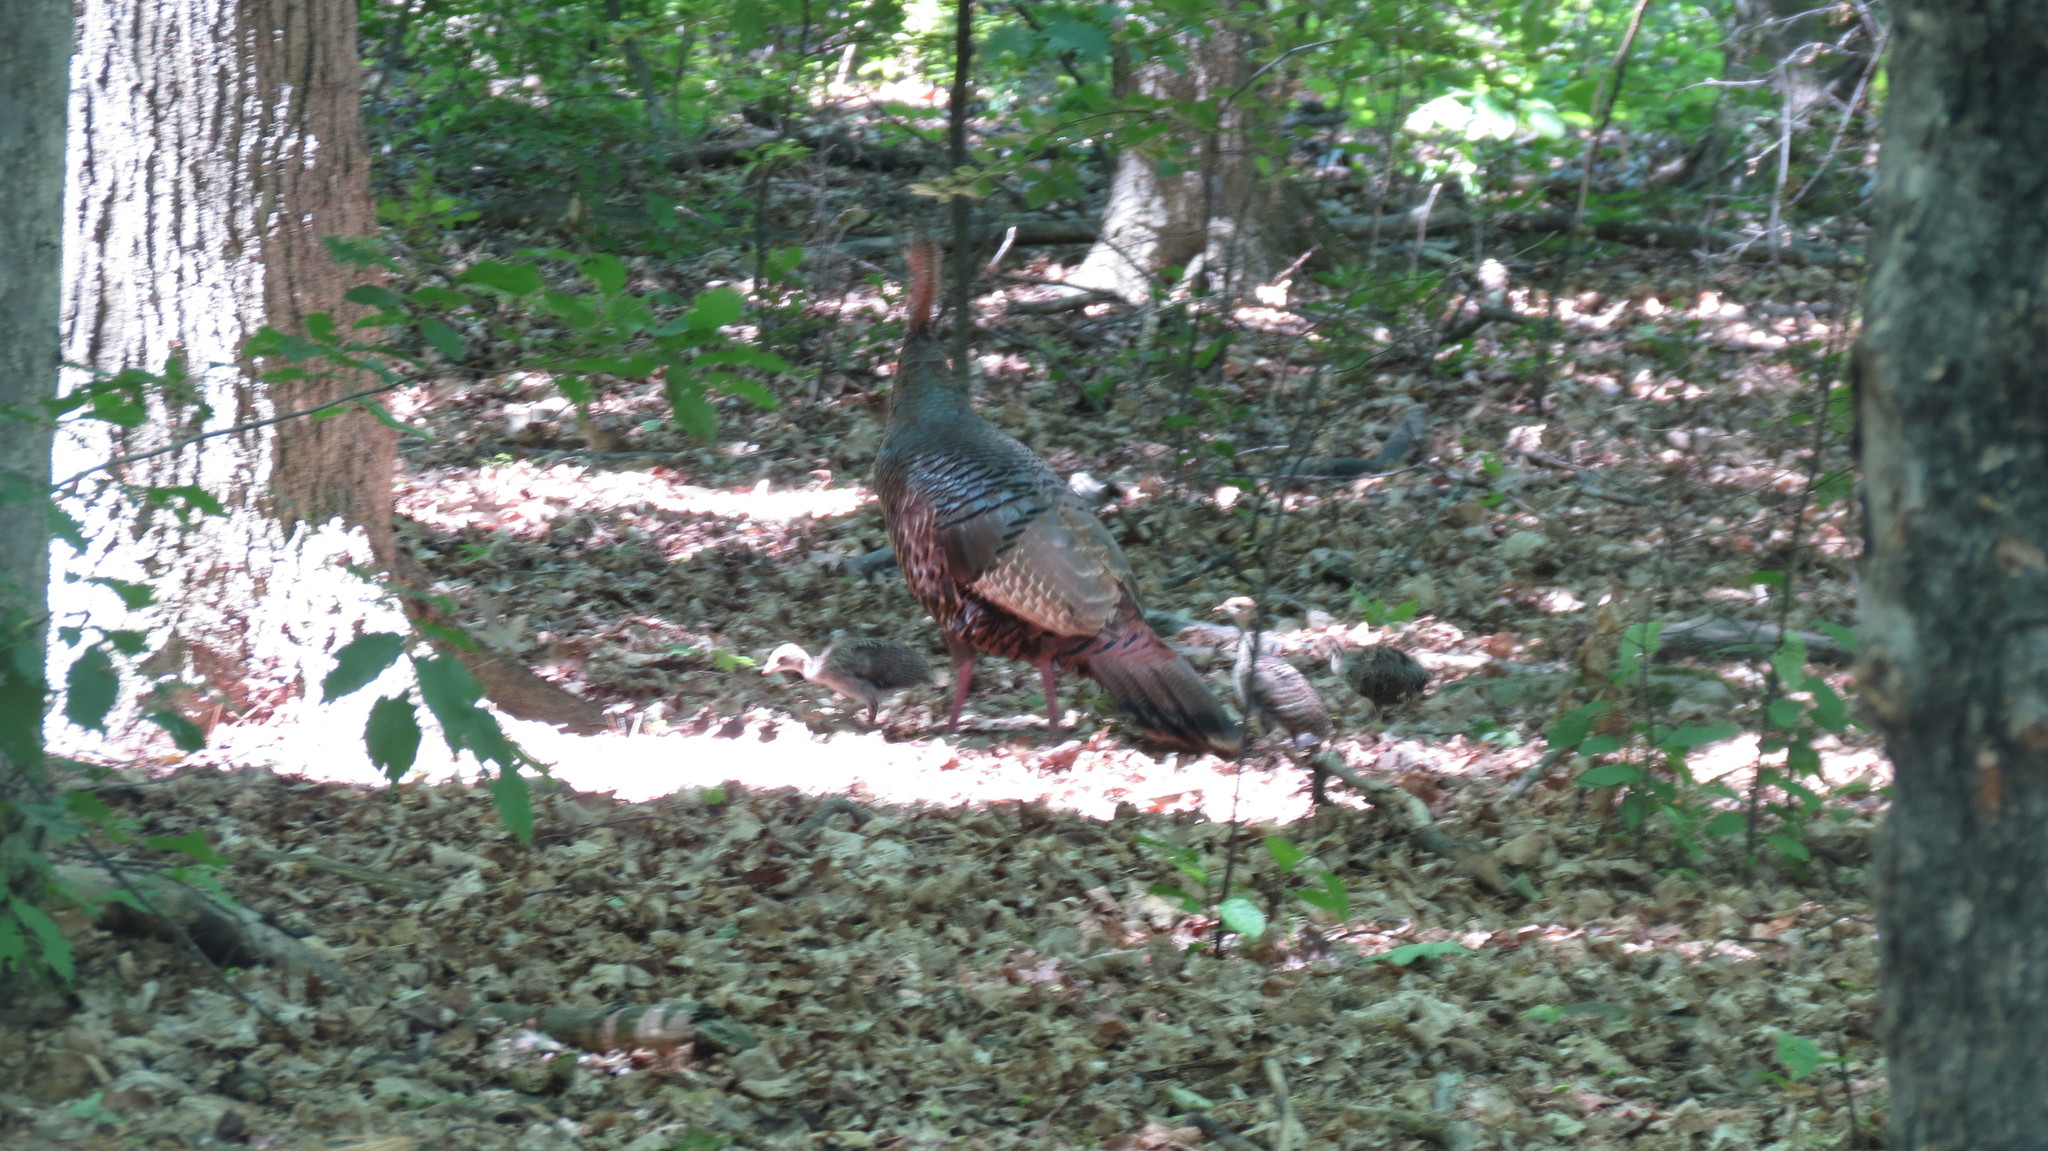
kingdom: Animalia
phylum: Chordata
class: Aves
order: Galliformes
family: Phasianidae
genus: Meleagris
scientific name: Meleagris gallopavo
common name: Wild turkey
